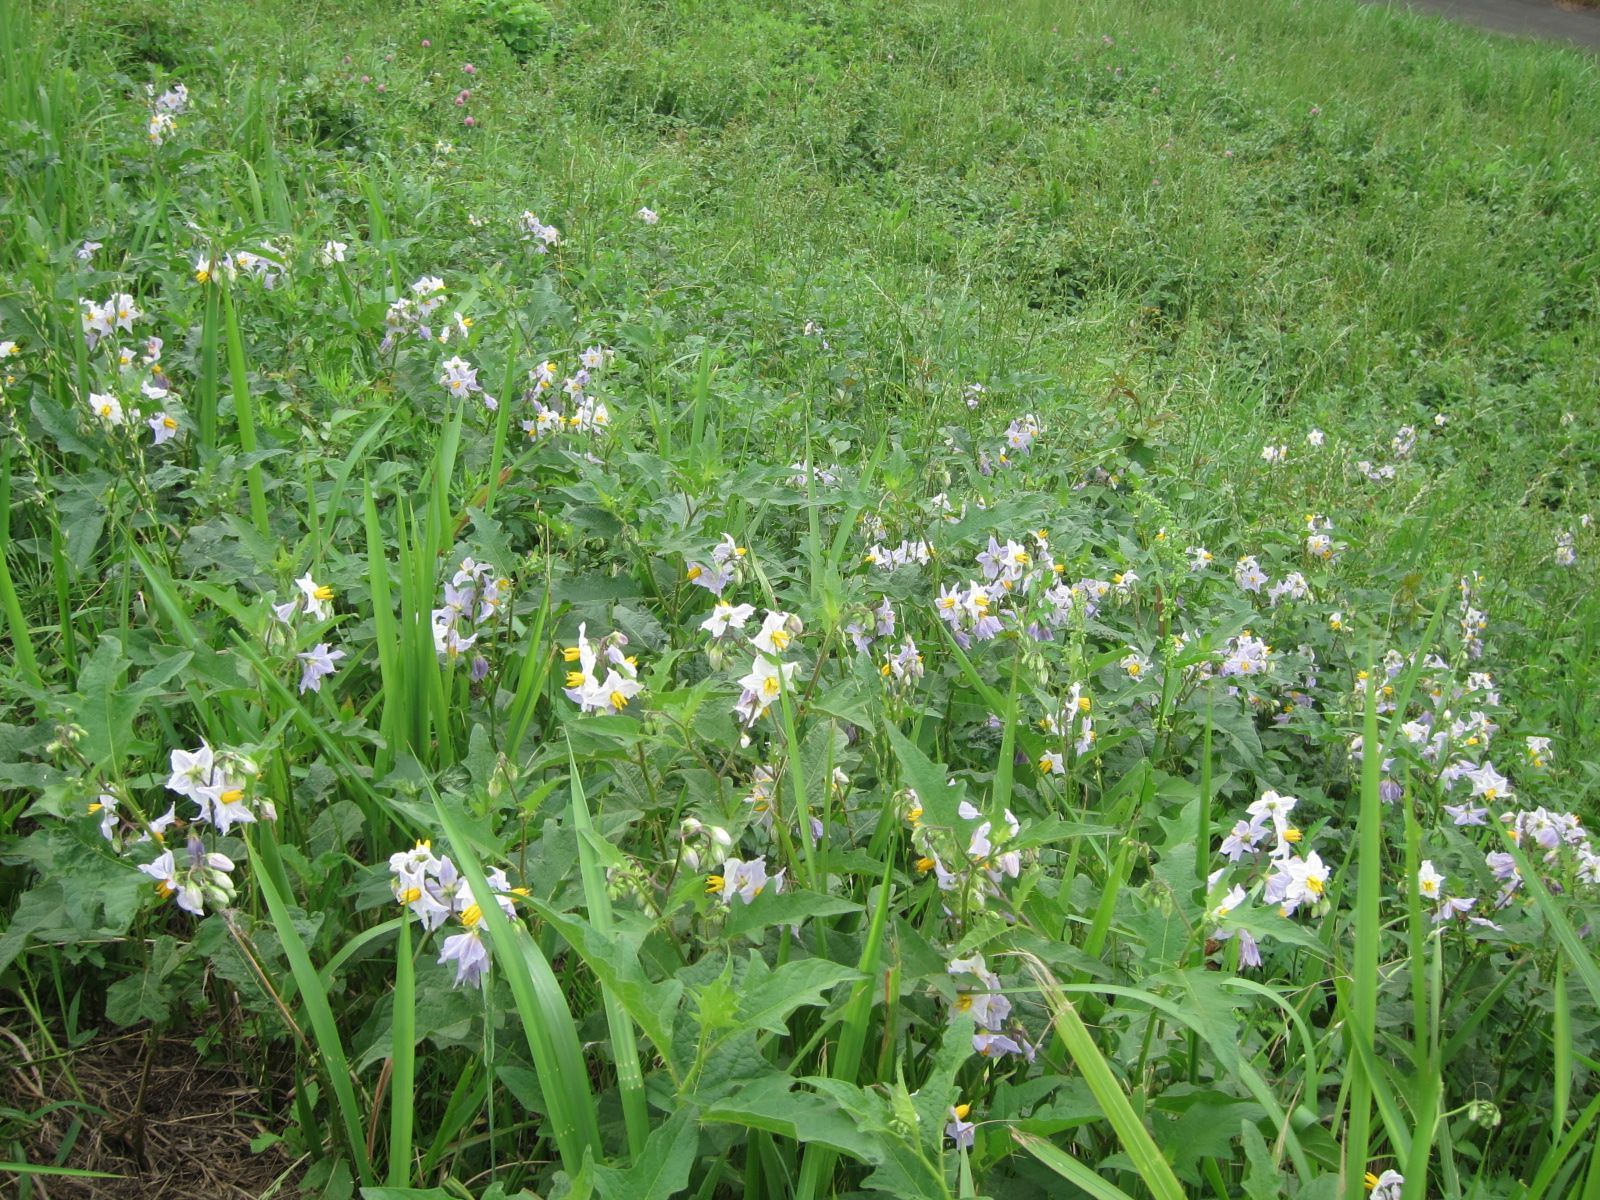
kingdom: Plantae
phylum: Tracheophyta
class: Magnoliopsida
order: Solanales
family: Solanaceae
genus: Solanum
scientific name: Solanum carolinense
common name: Horse-nettle
